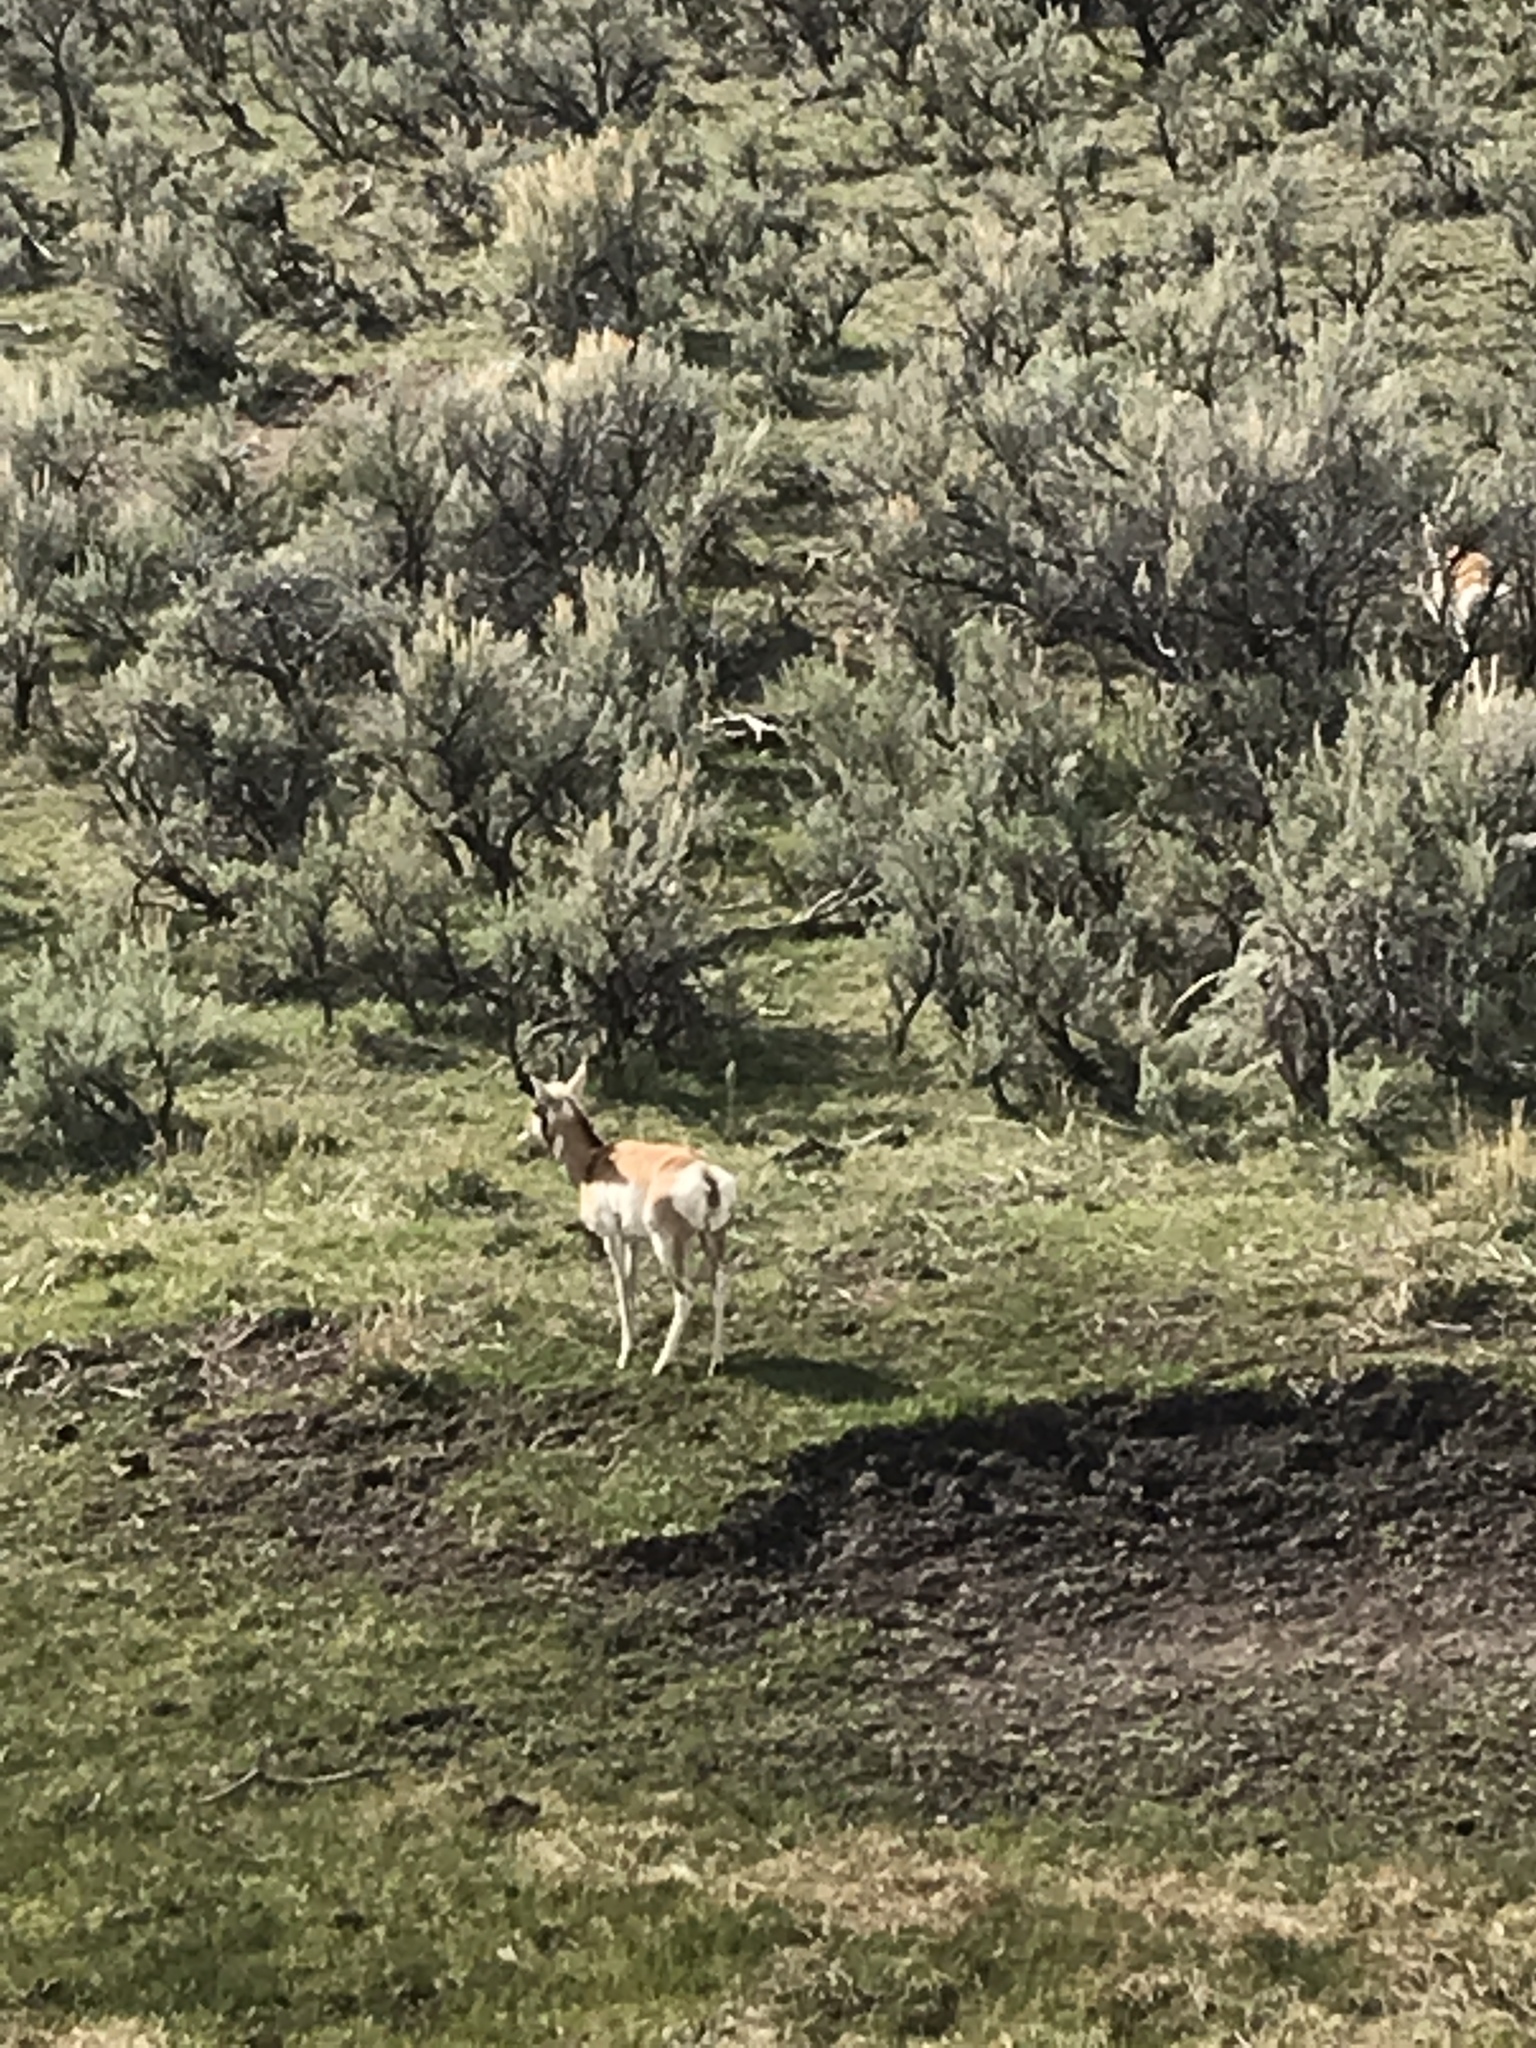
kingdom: Animalia
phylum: Chordata
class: Mammalia
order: Artiodactyla
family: Antilocapridae
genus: Antilocapra
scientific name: Antilocapra americana
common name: Pronghorn
